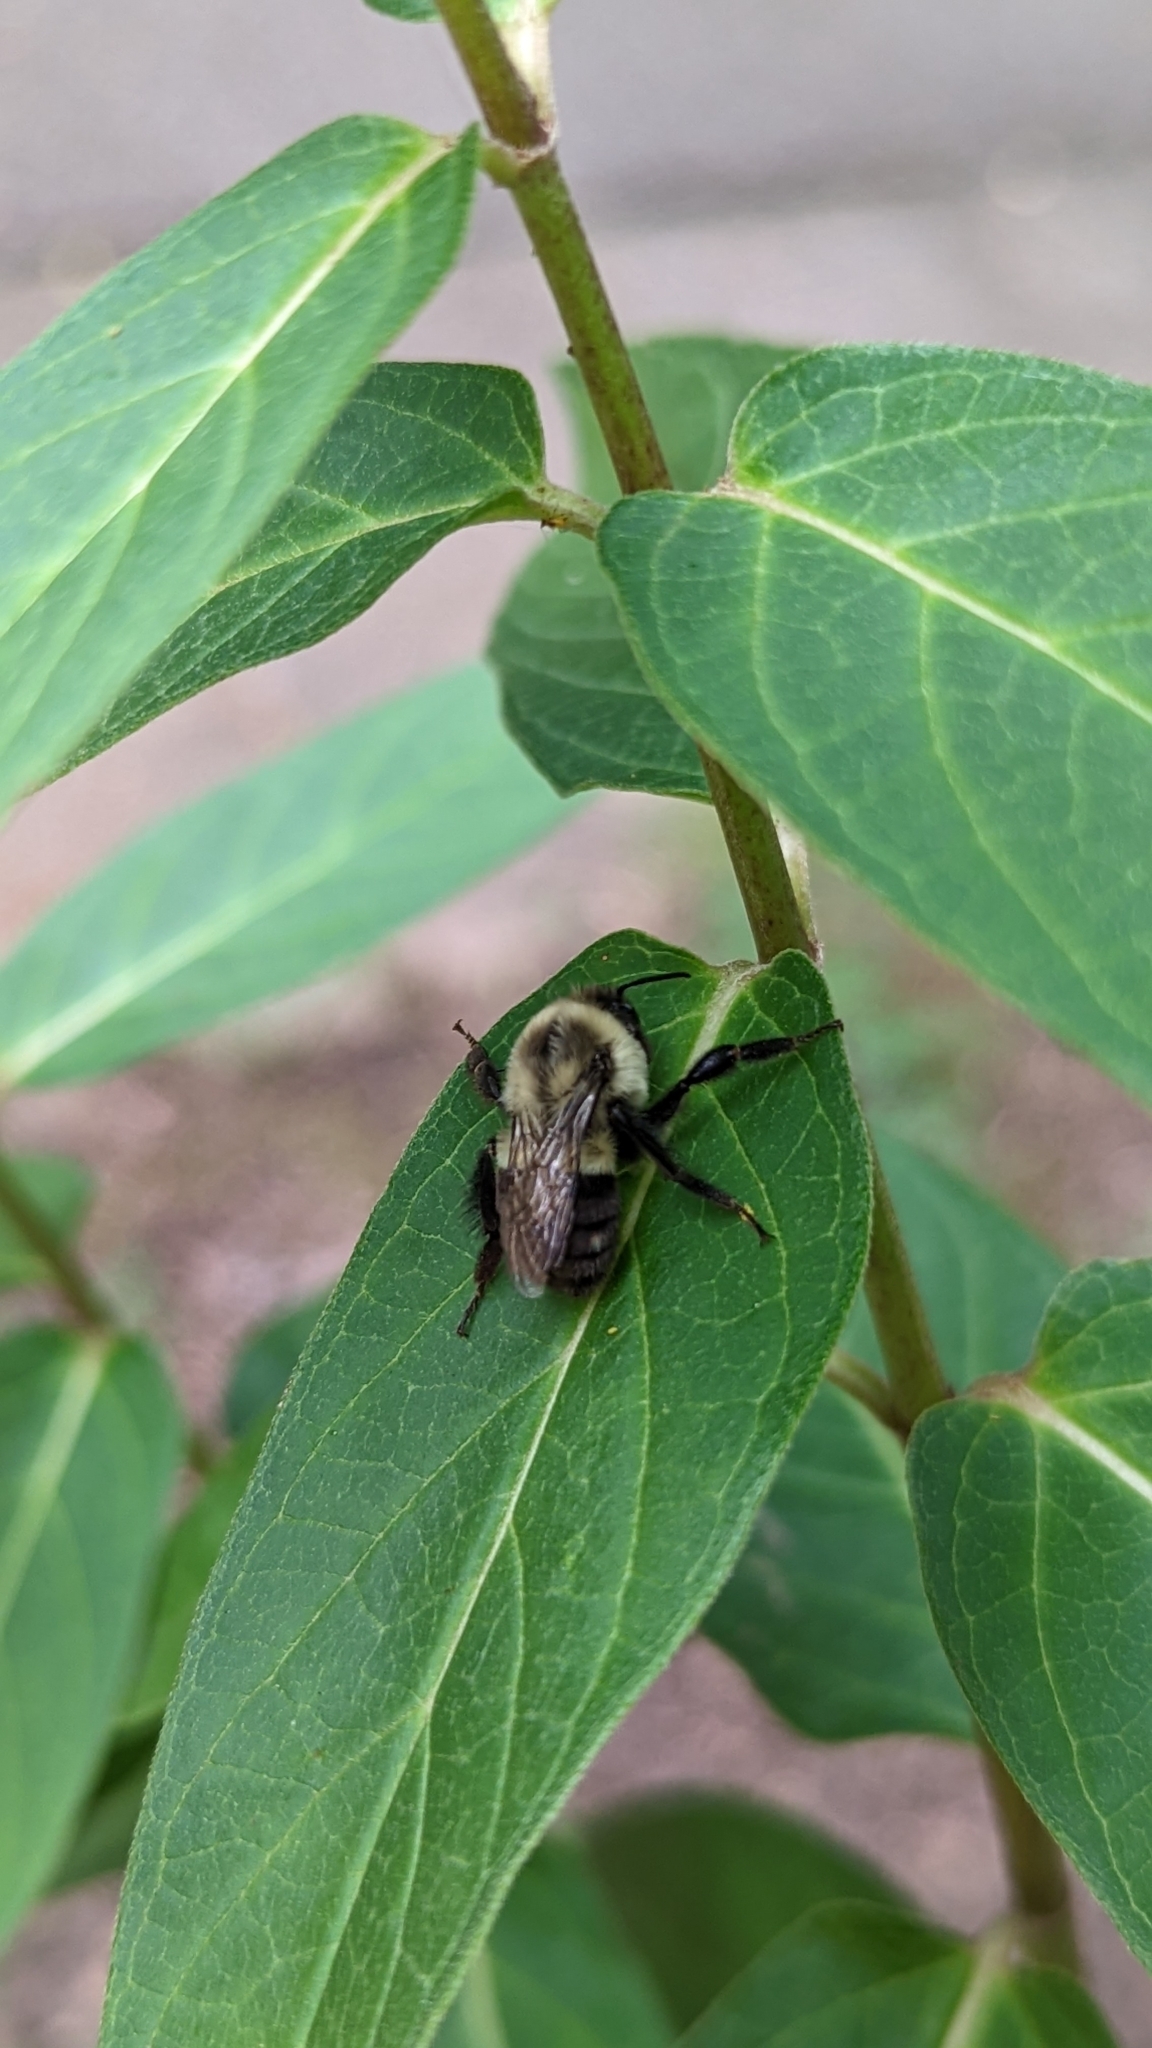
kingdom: Animalia
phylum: Arthropoda
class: Insecta
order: Hymenoptera
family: Apidae
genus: Bombus
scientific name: Bombus impatiens
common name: Common eastern bumble bee
